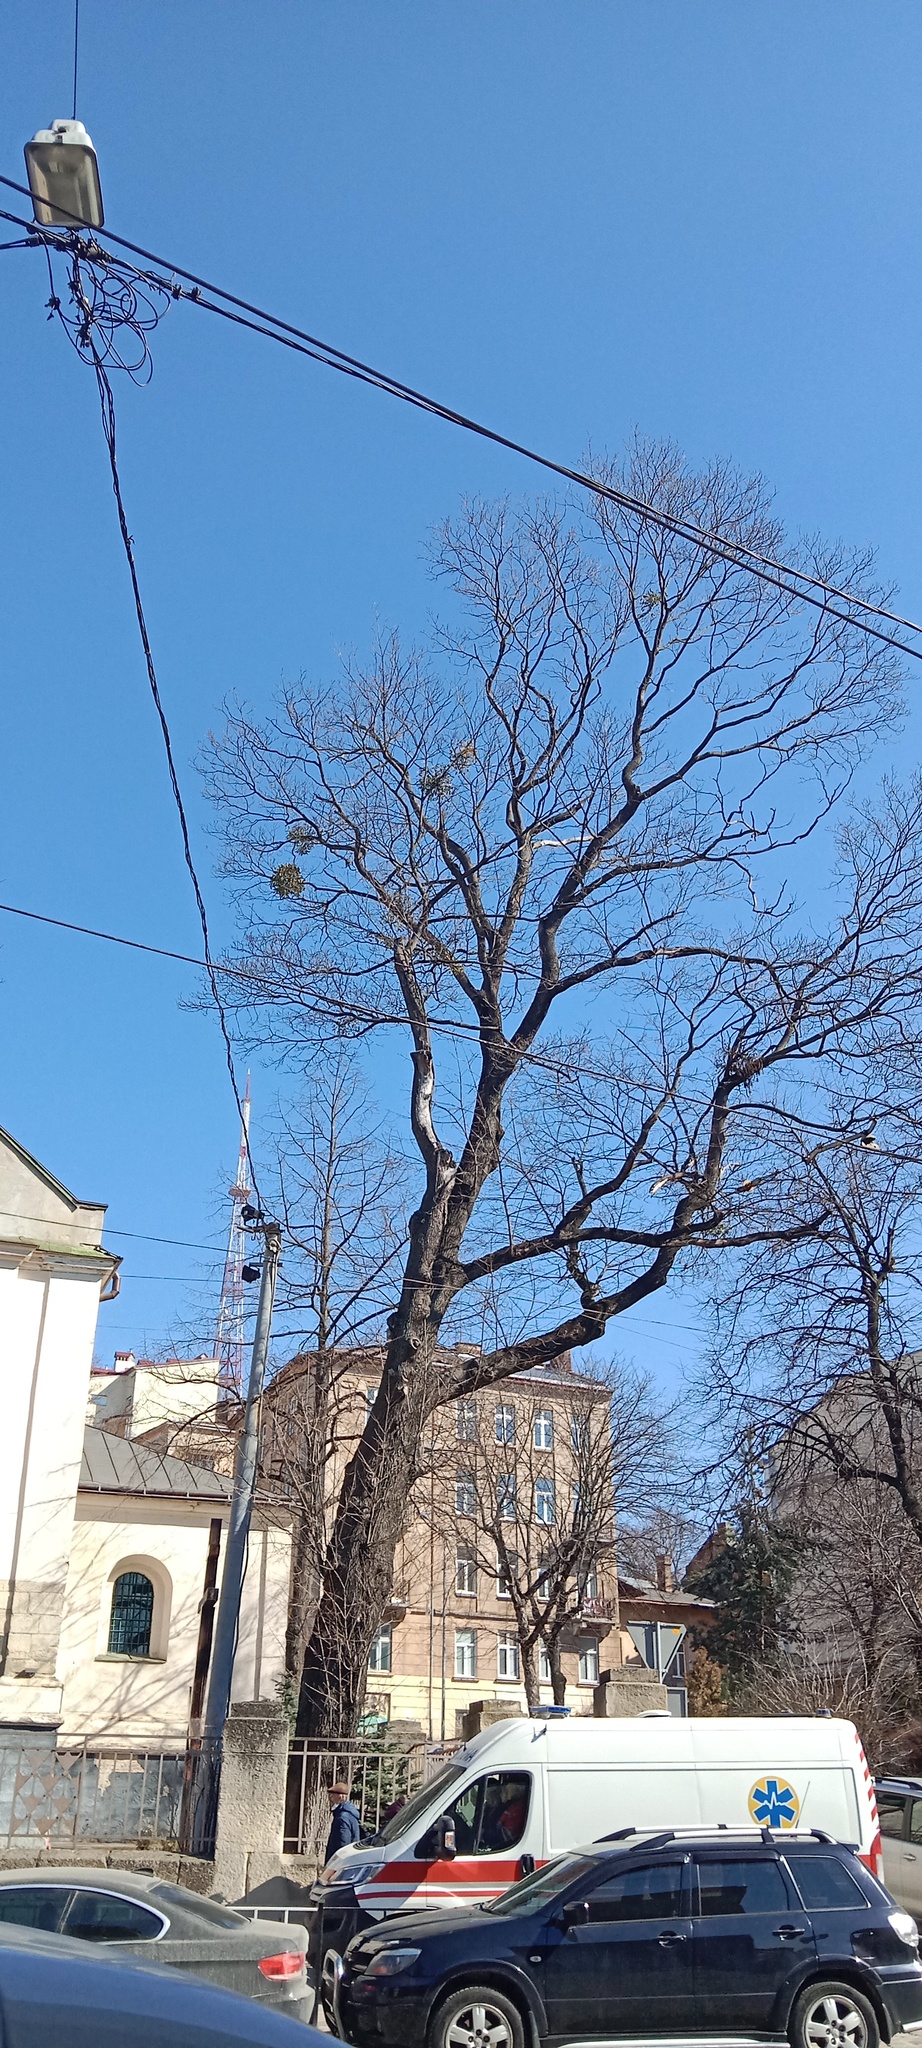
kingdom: Plantae
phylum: Tracheophyta
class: Magnoliopsida
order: Santalales
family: Viscaceae
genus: Viscum
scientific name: Viscum album
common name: Mistletoe
